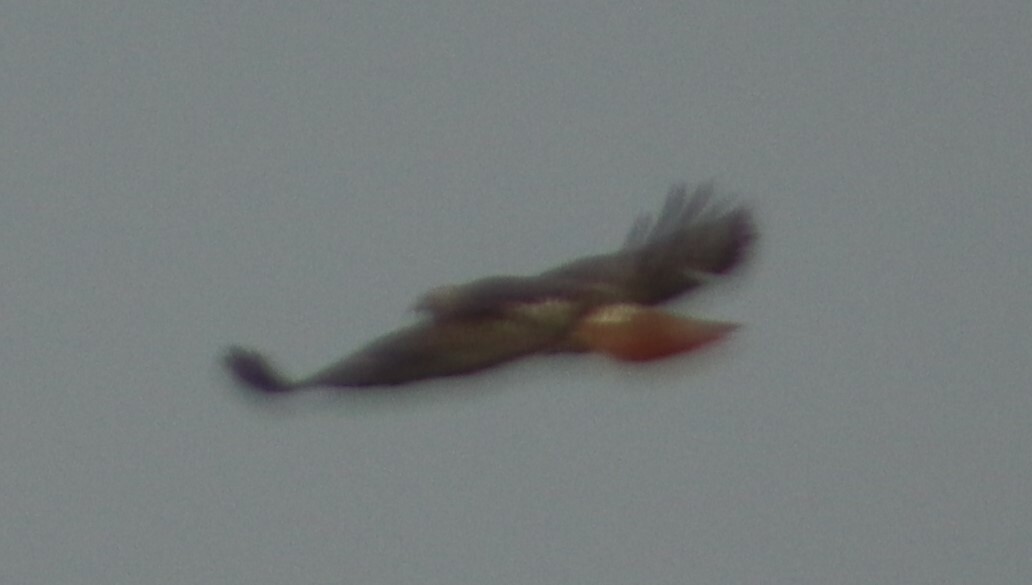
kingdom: Animalia
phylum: Chordata
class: Aves
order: Accipitriformes
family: Accipitridae
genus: Buteo
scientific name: Buteo jamaicensis
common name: Red-tailed hawk
